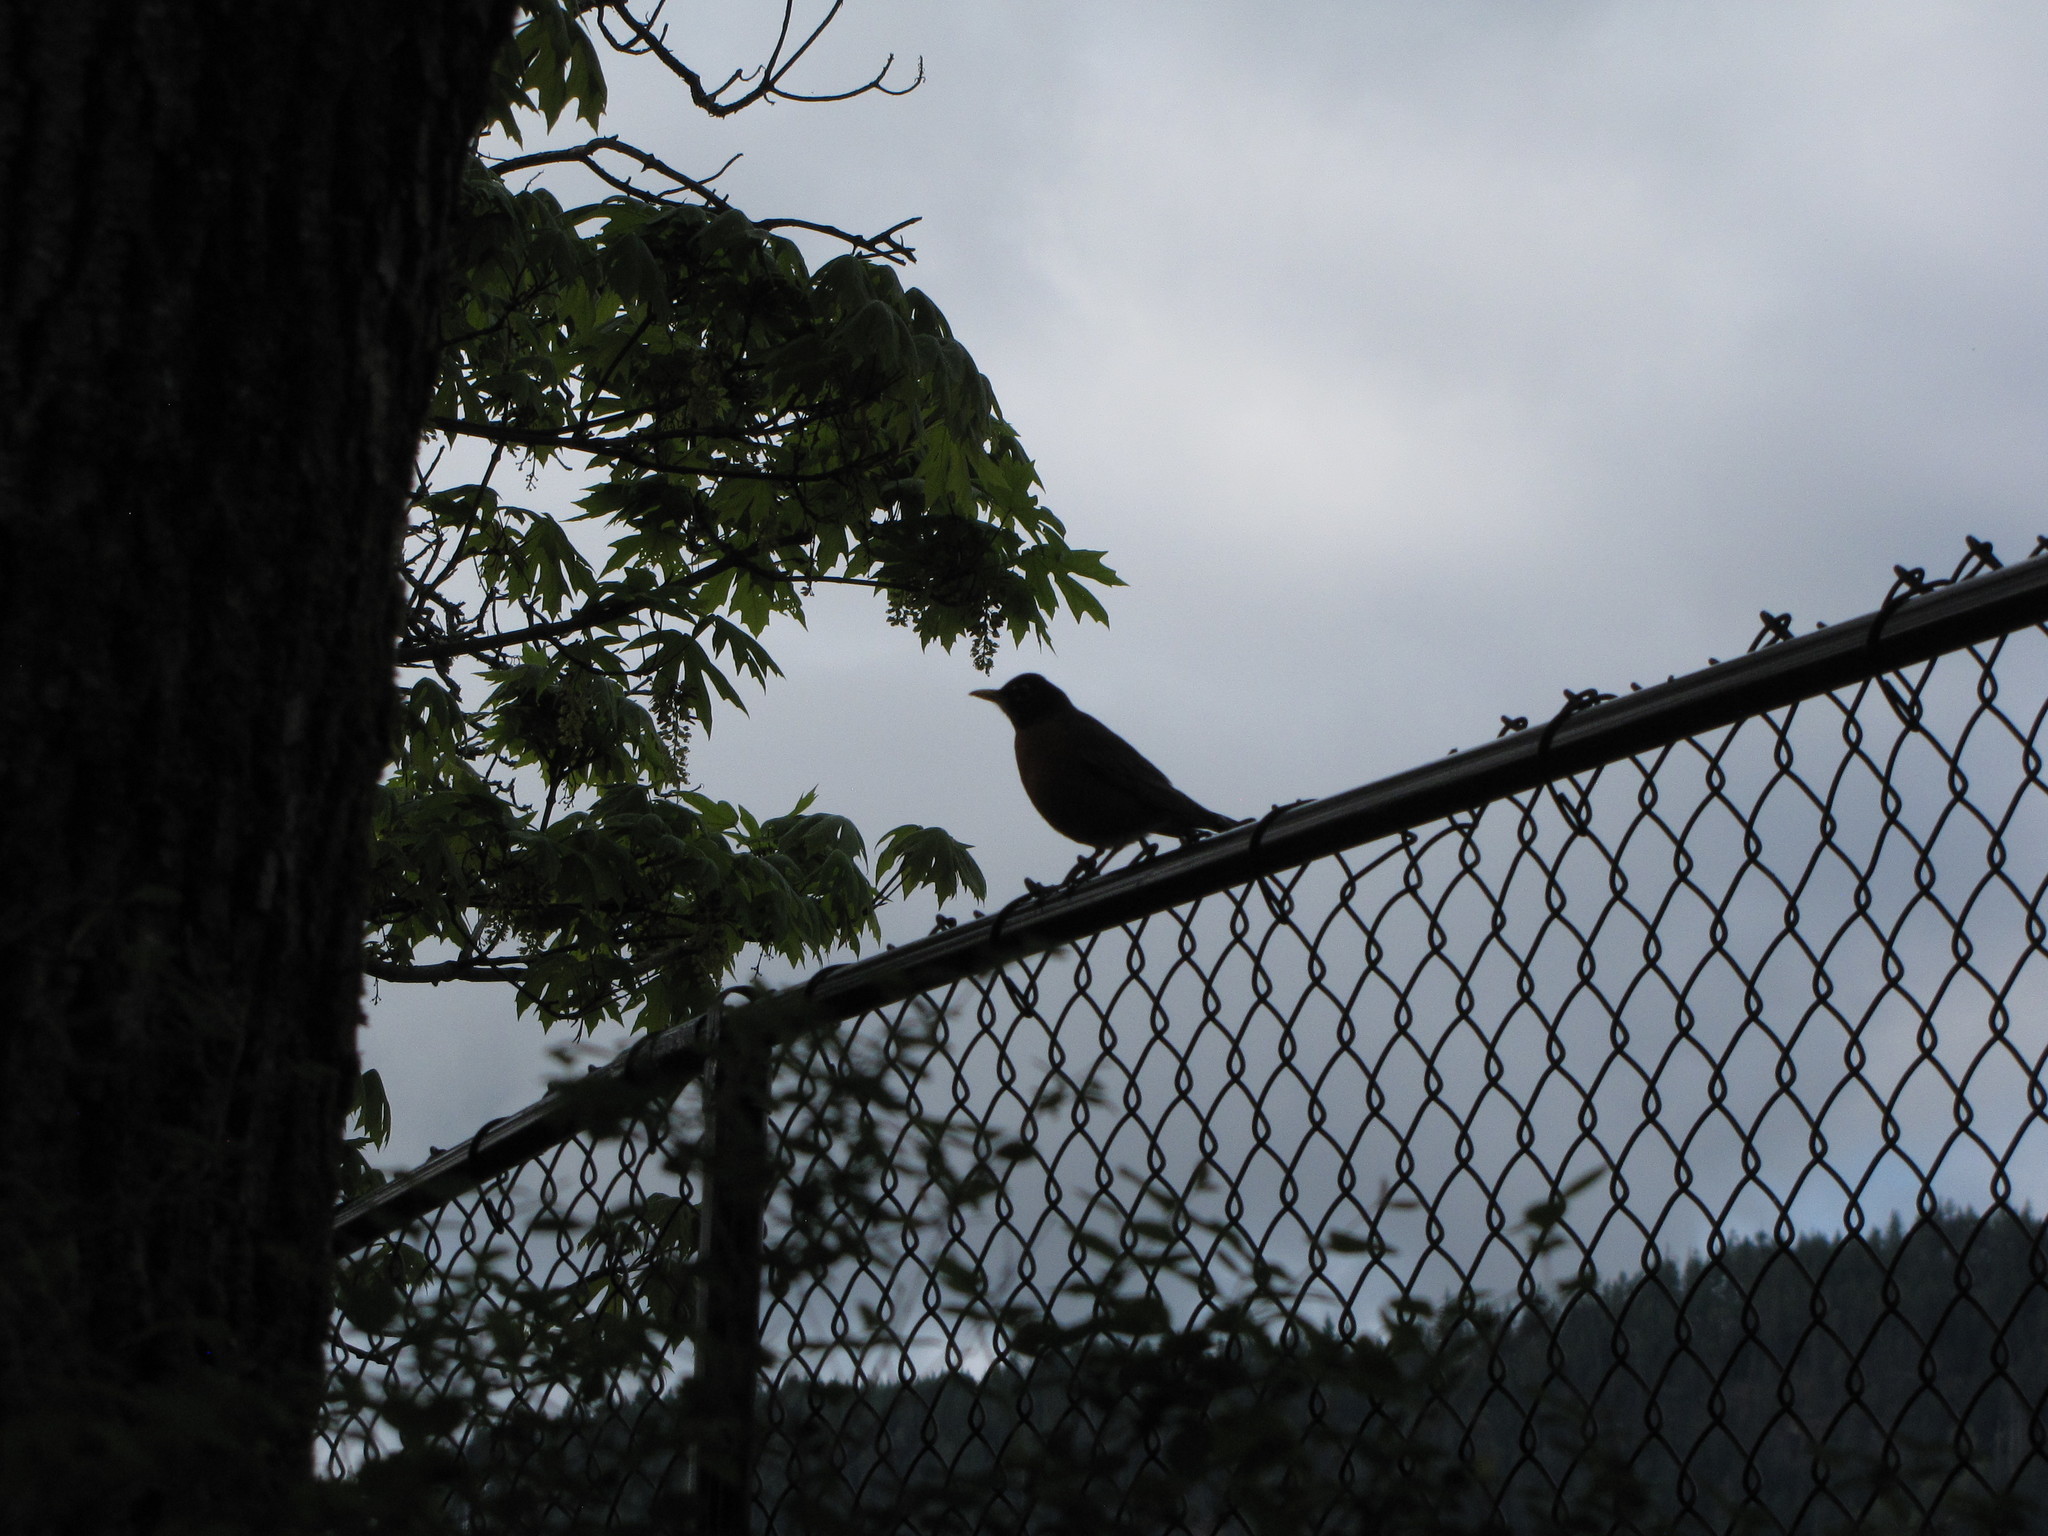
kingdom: Animalia
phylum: Chordata
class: Aves
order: Passeriformes
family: Turdidae
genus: Turdus
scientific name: Turdus migratorius
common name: American robin
